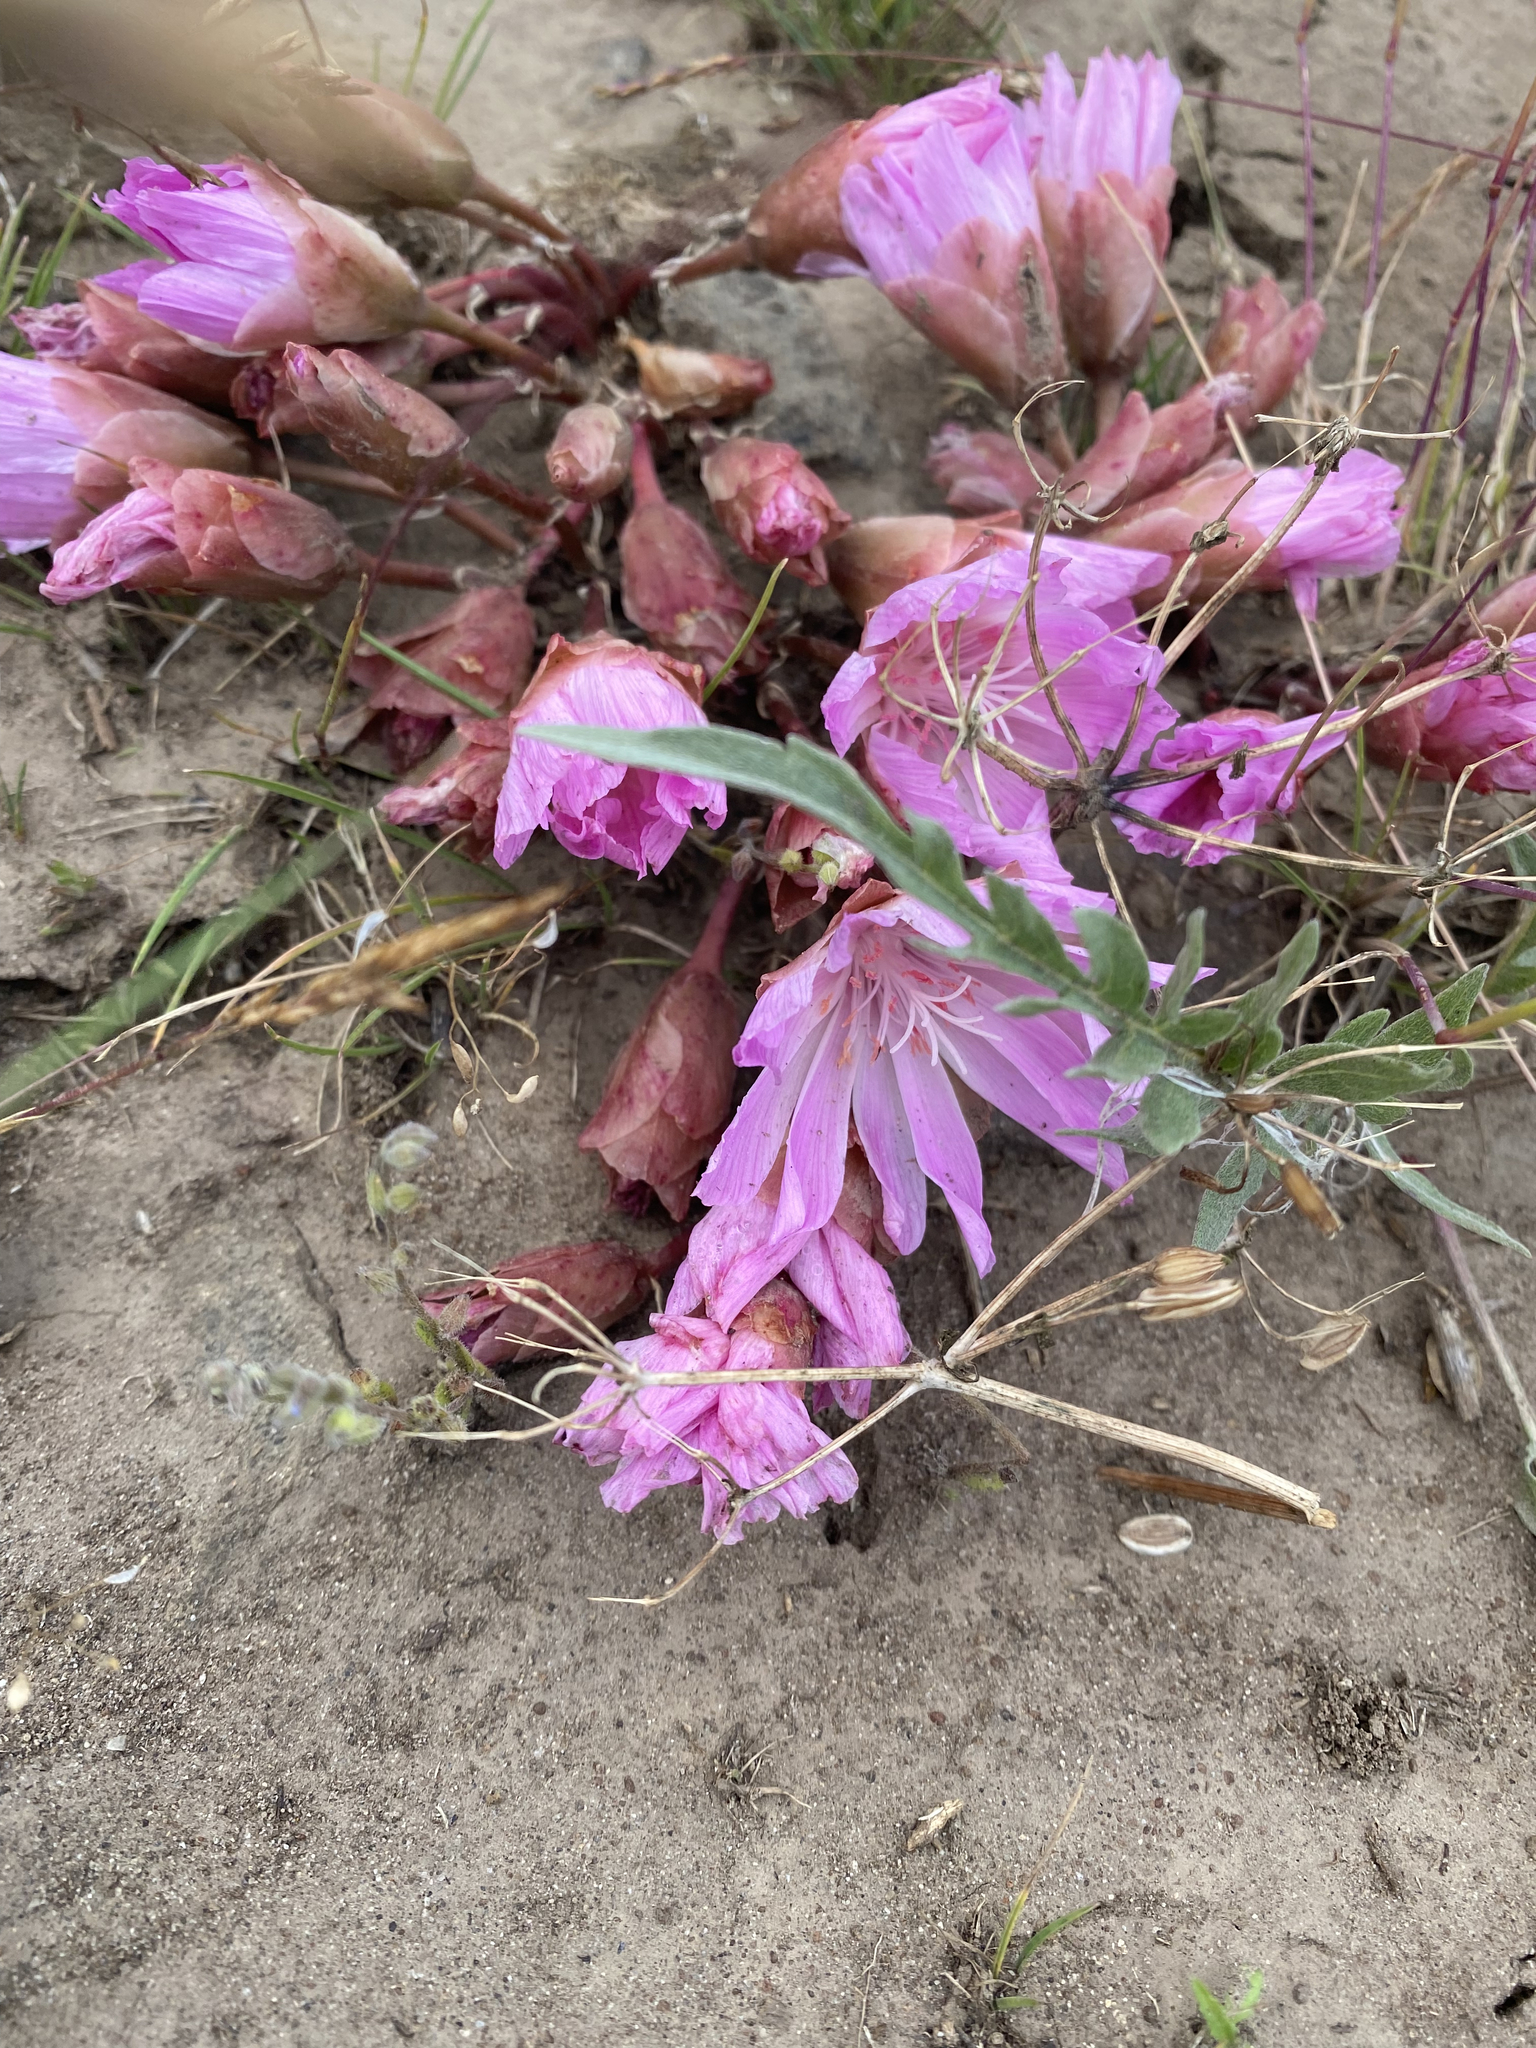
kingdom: Plantae
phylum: Tracheophyta
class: Magnoliopsida
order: Caryophyllales
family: Montiaceae
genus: Lewisia
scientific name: Lewisia rediviva
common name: Bitter-root
